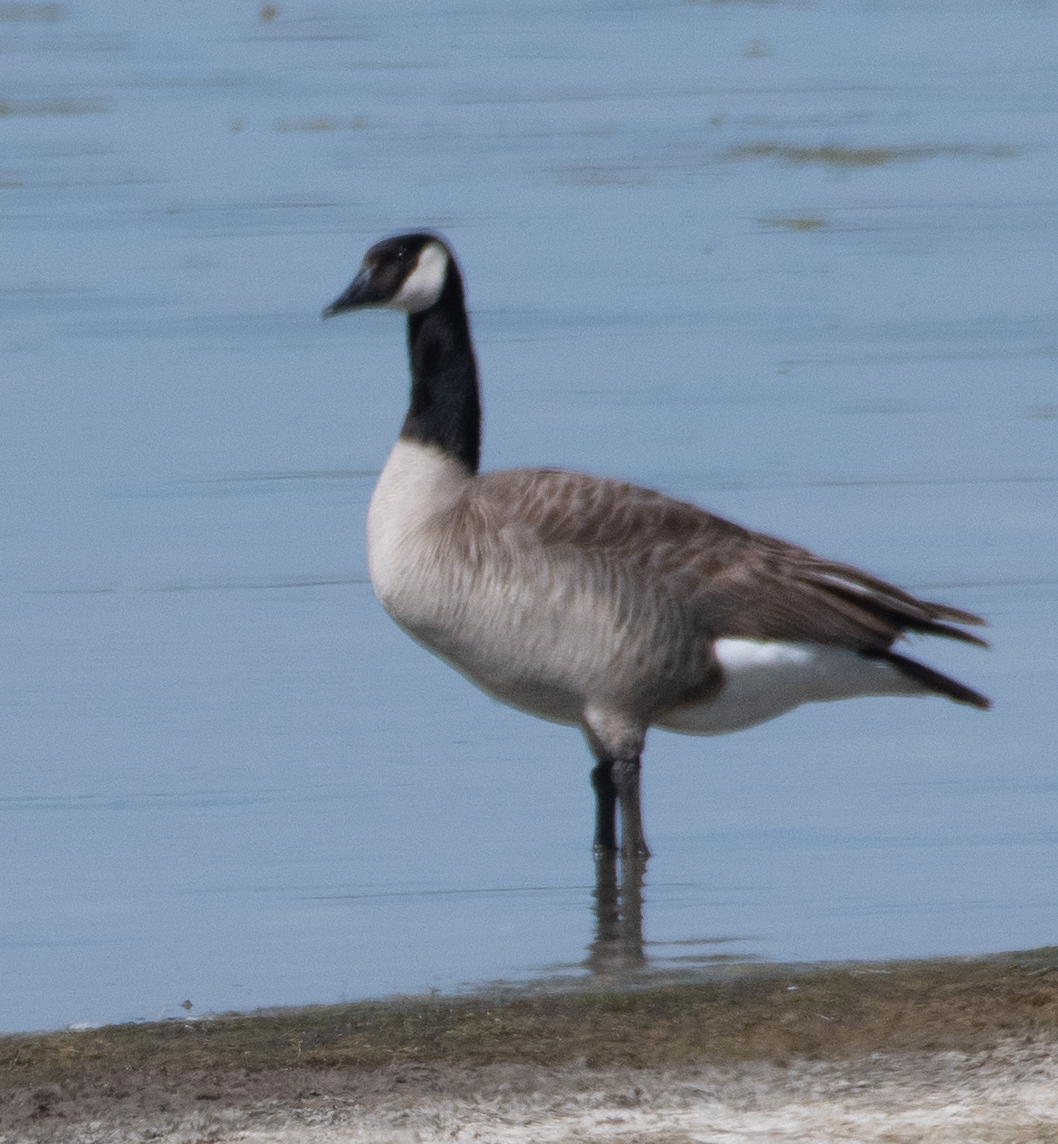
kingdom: Animalia
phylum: Chordata
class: Aves
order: Anseriformes
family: Anatidae
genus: Branta
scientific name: Branta canadensis
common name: Canada goose
